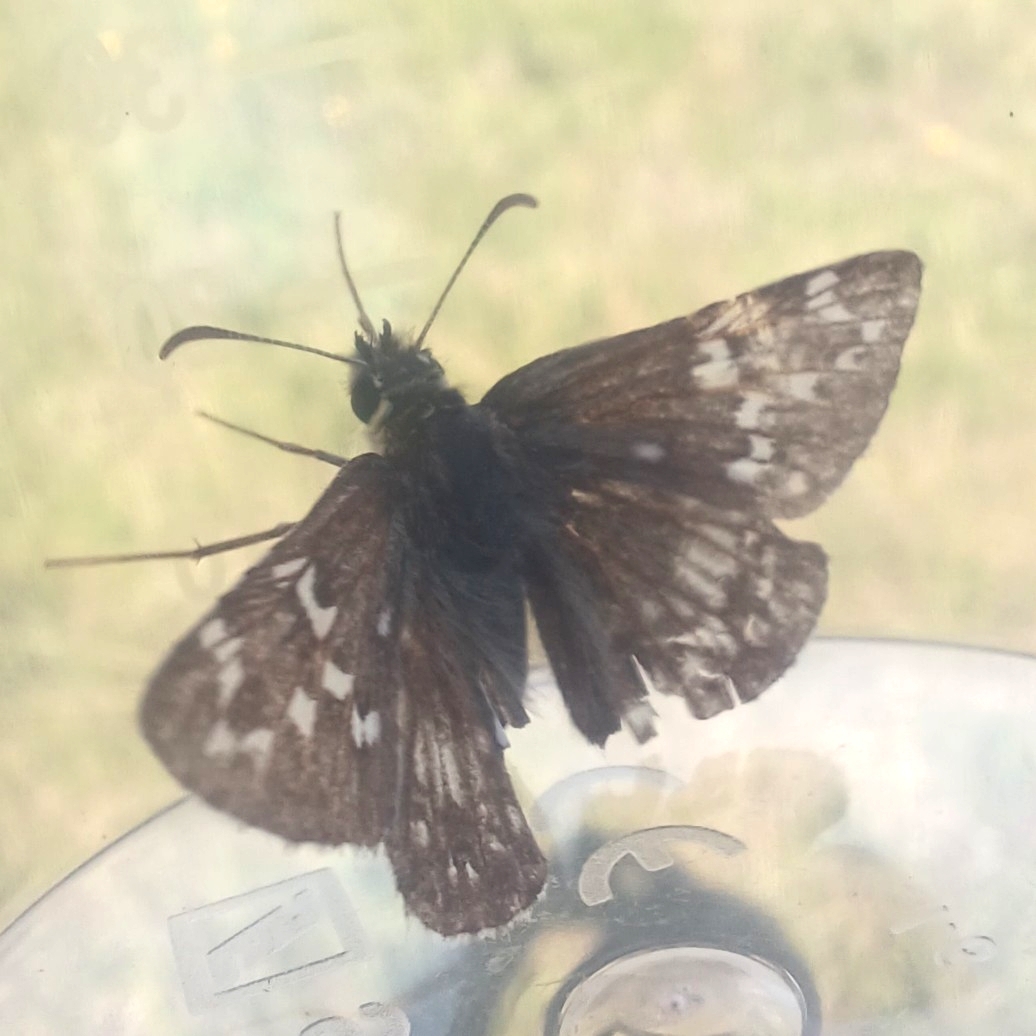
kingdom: Animalia
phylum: Arthropoda
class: Insecta
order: Lepidoptera
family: Hesperiidae
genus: Pyrgus
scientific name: Pyrgus fritillarius
